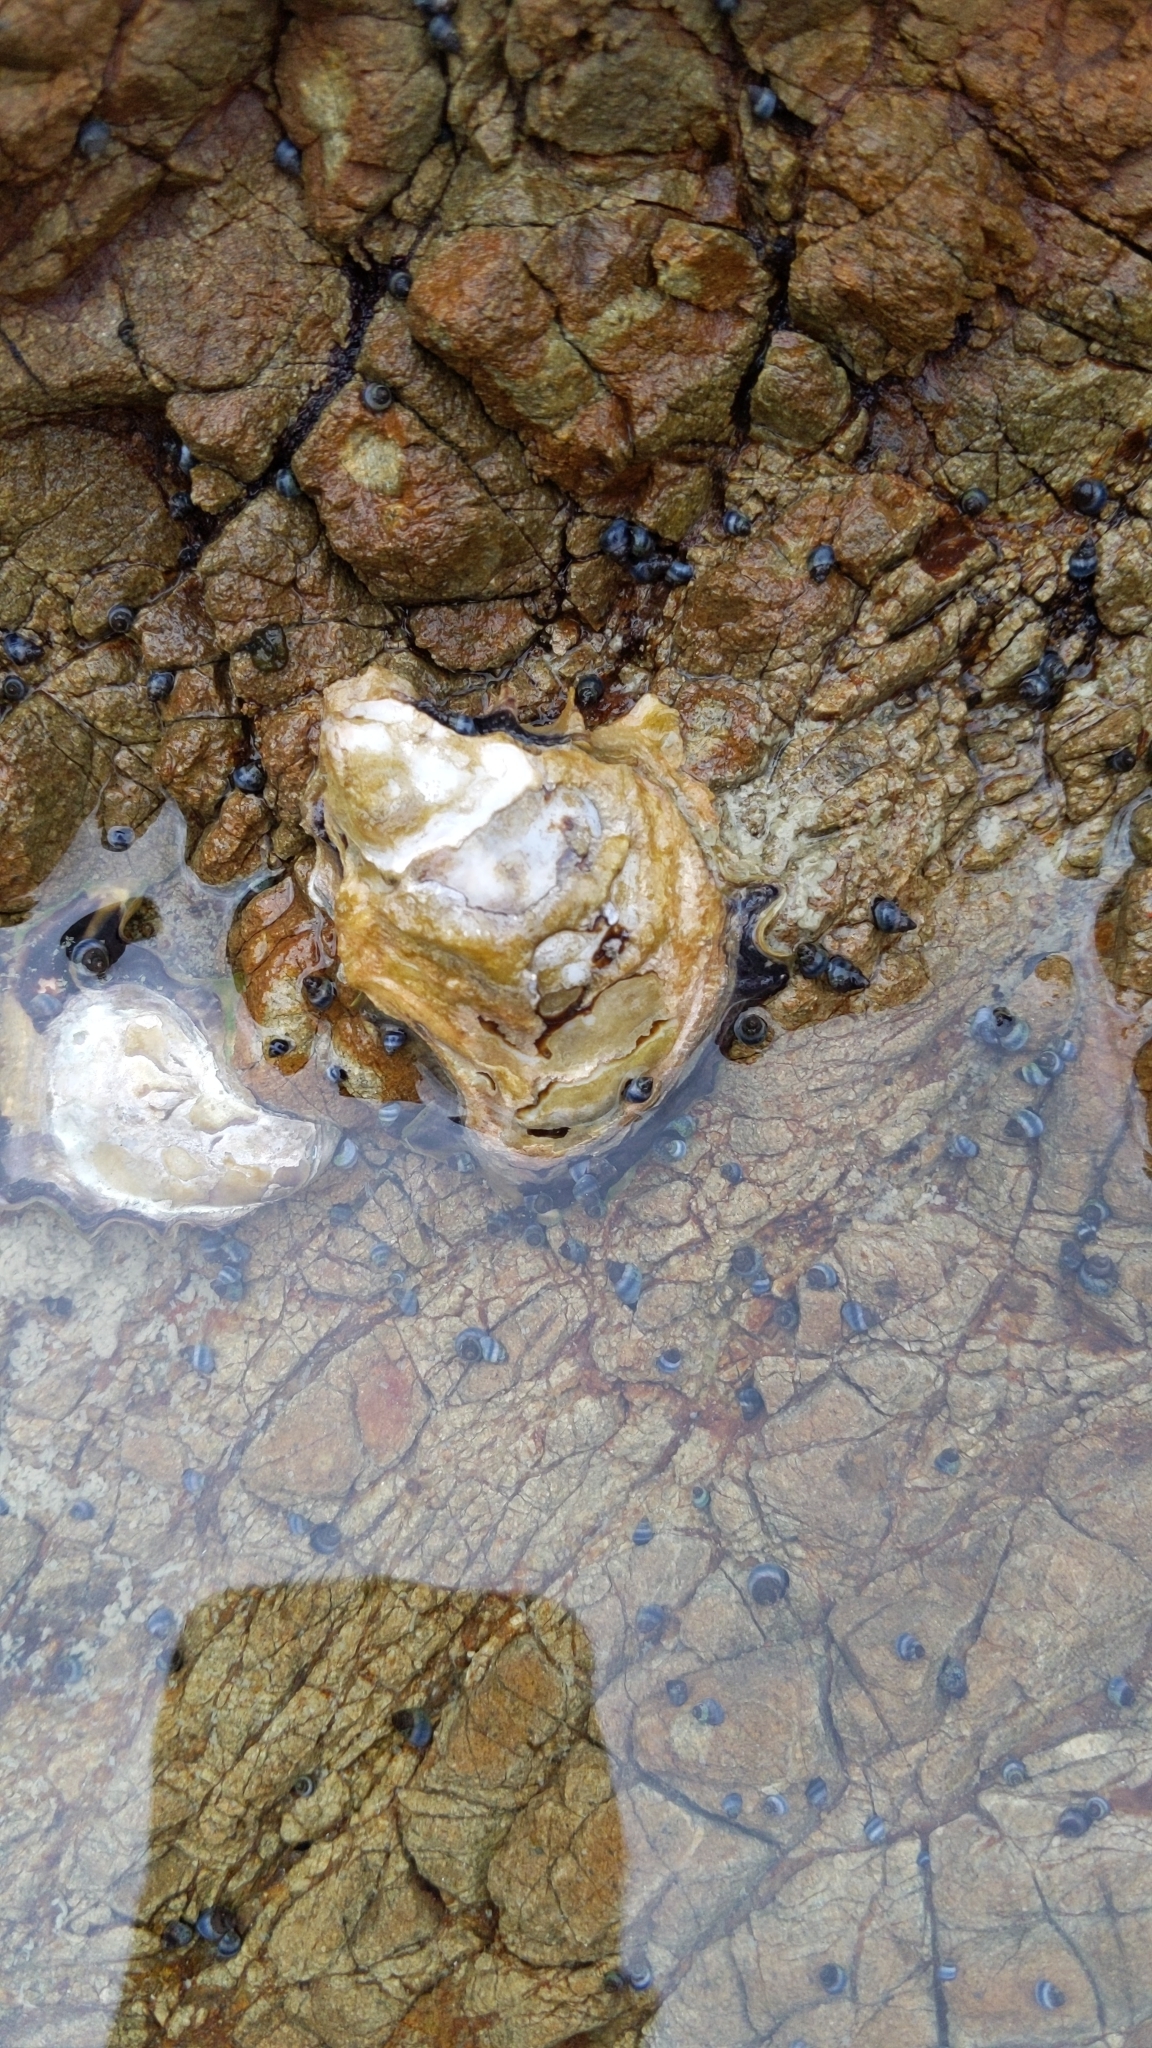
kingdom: Animalia
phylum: Mollusca
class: Bivalvia
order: Ostreida
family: Ostreidae
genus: Saccostrea
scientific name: Saccostrea glomerata
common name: Sydney cupped oyster
